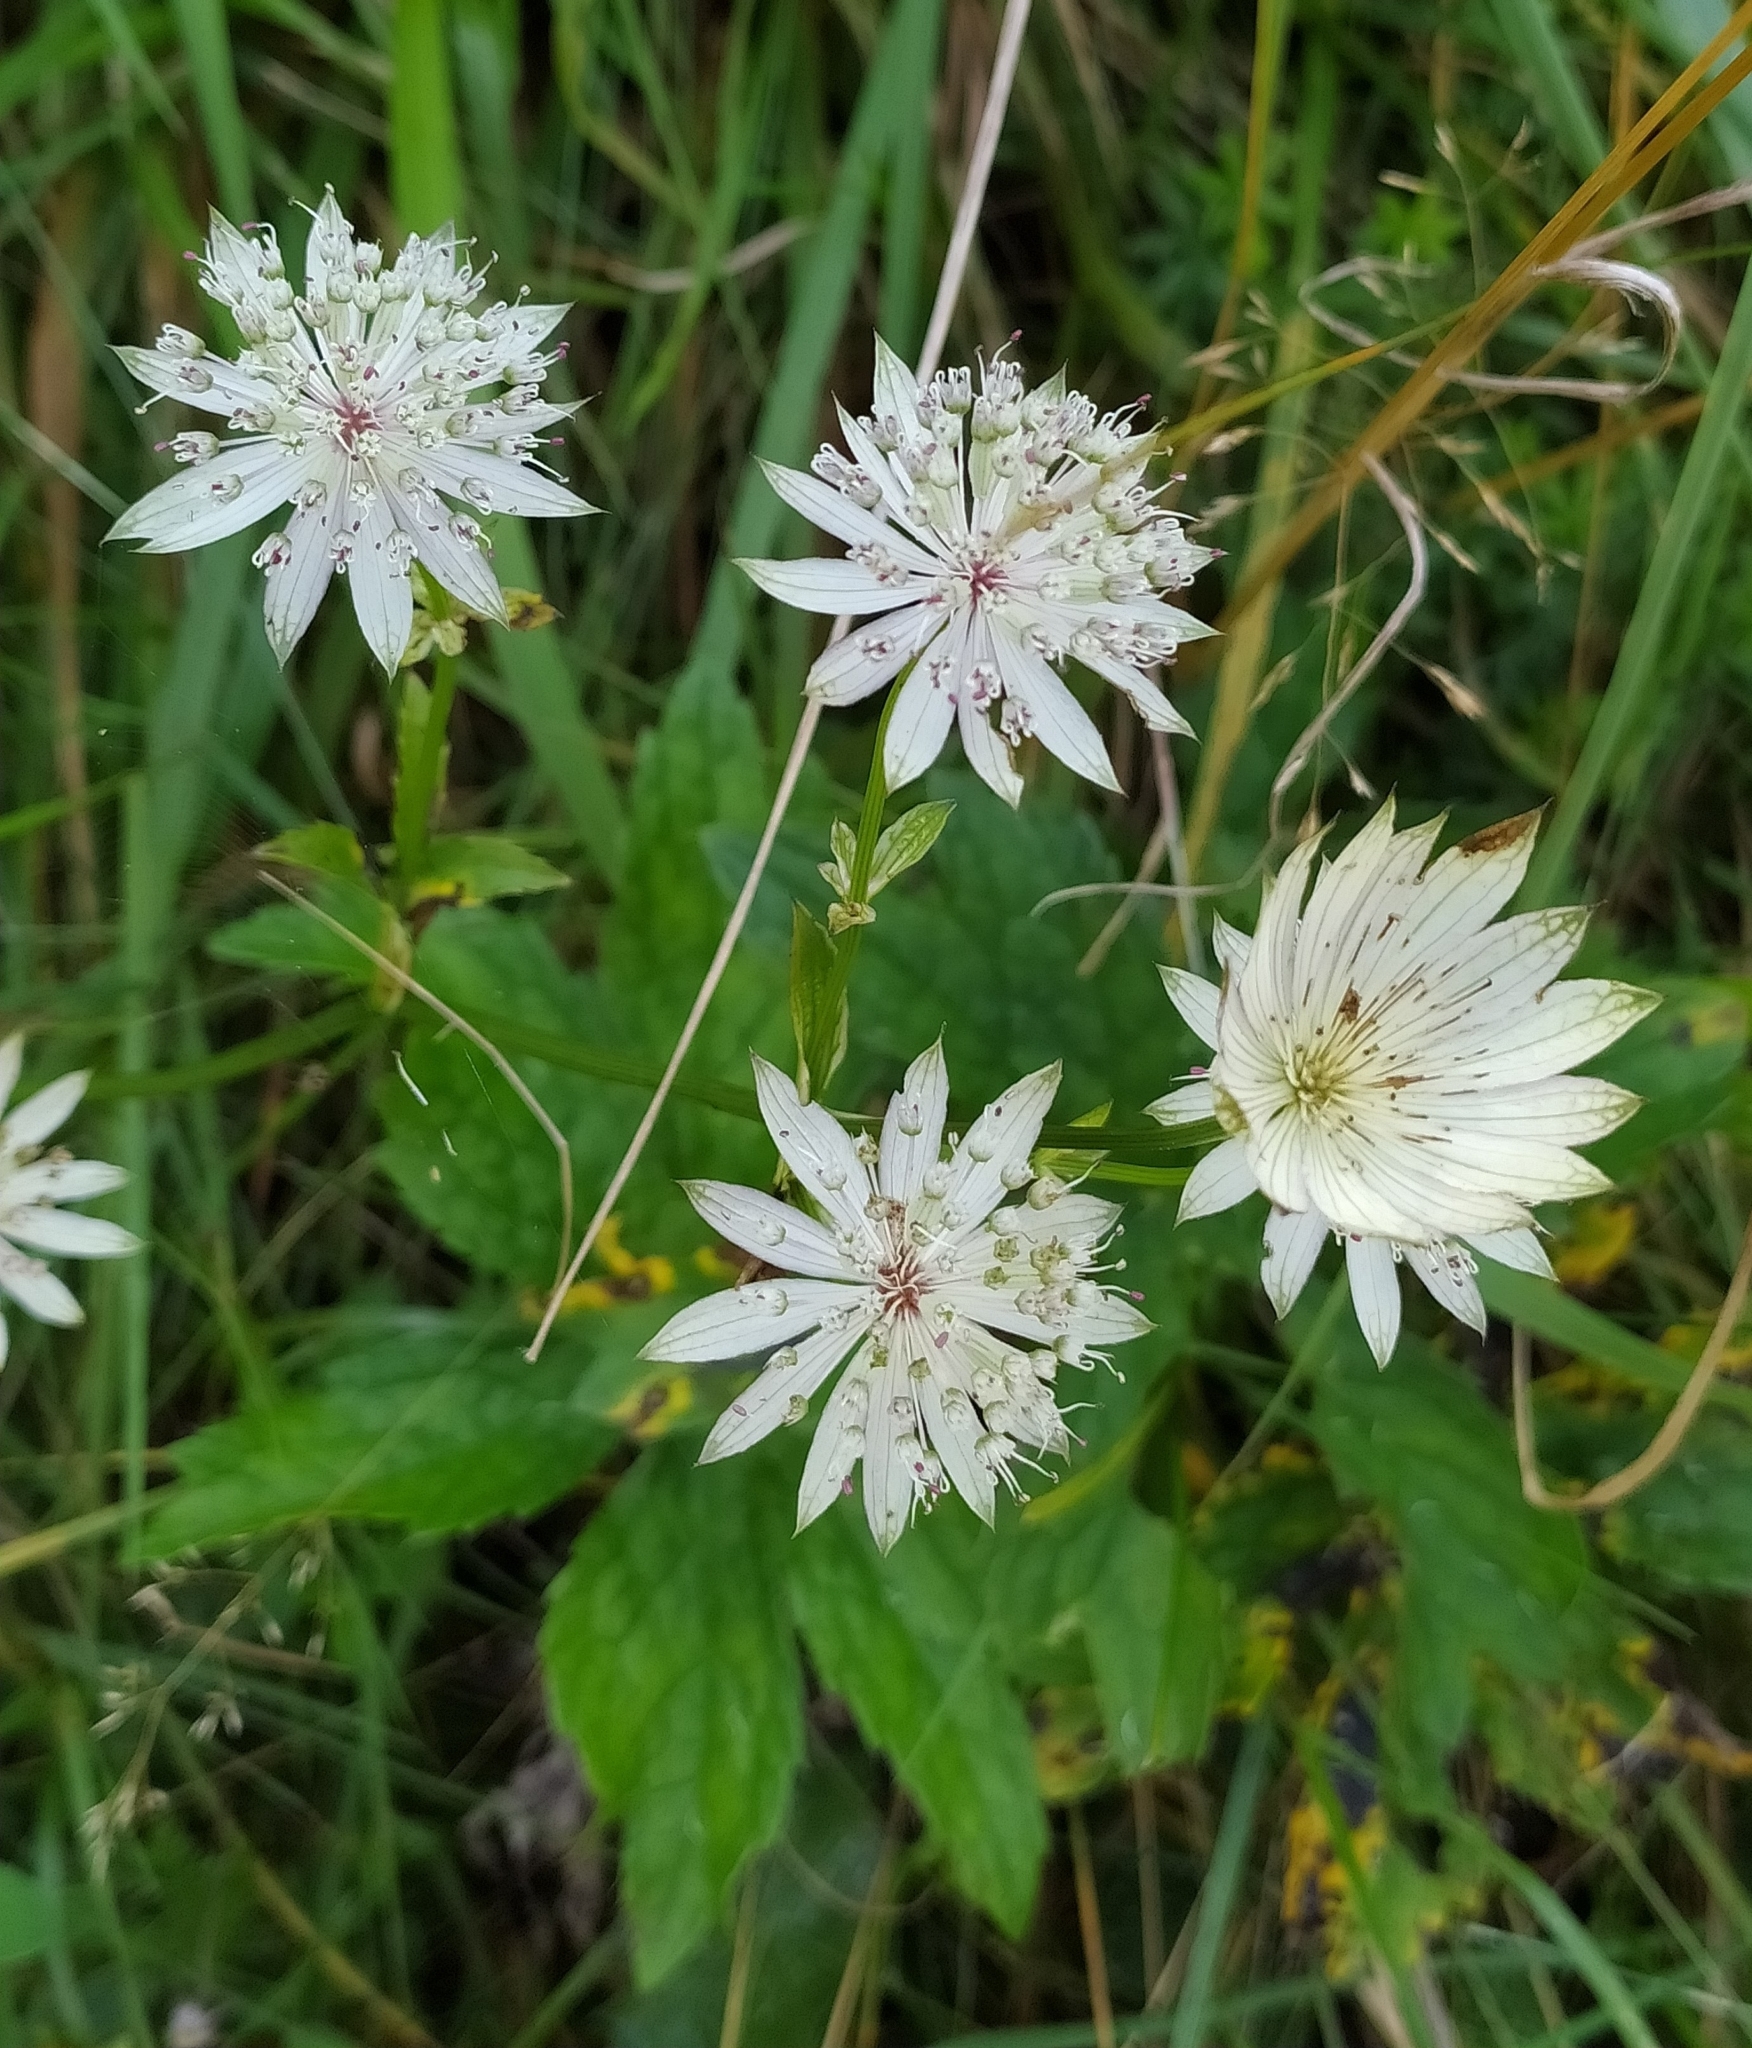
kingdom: Plantae
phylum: Tracheophyta
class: Magnoliopsida
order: Apiales
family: Apiaceae
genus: Astrantia
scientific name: Astrantia major
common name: Greater masterwort
